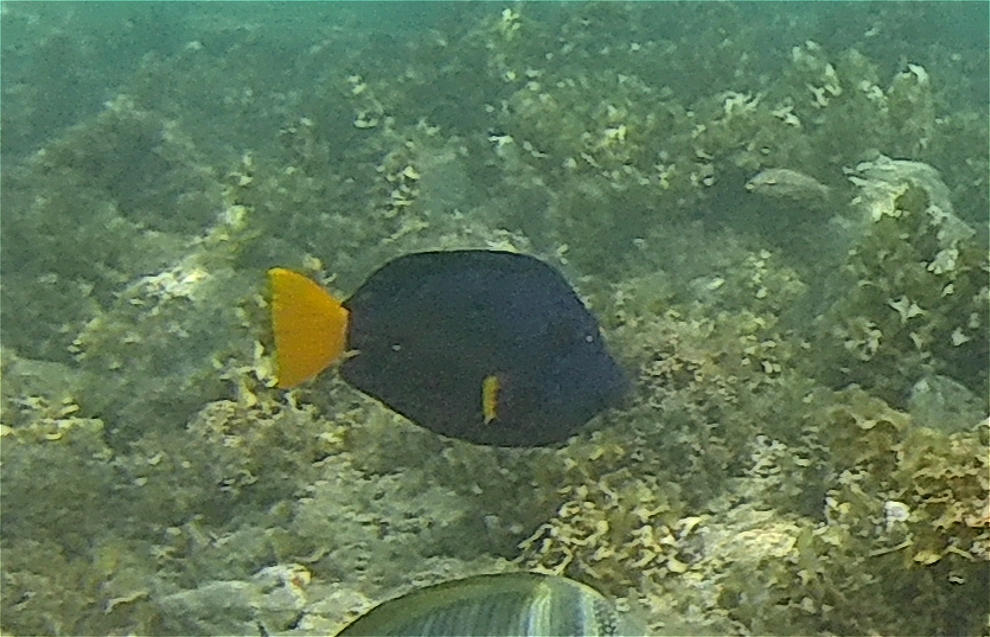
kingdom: Animalia
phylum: Chordata
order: Perciformes
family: Acanthuridae
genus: Zebrasoma
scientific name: Zebrasoma xanthurum
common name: Purple tang
